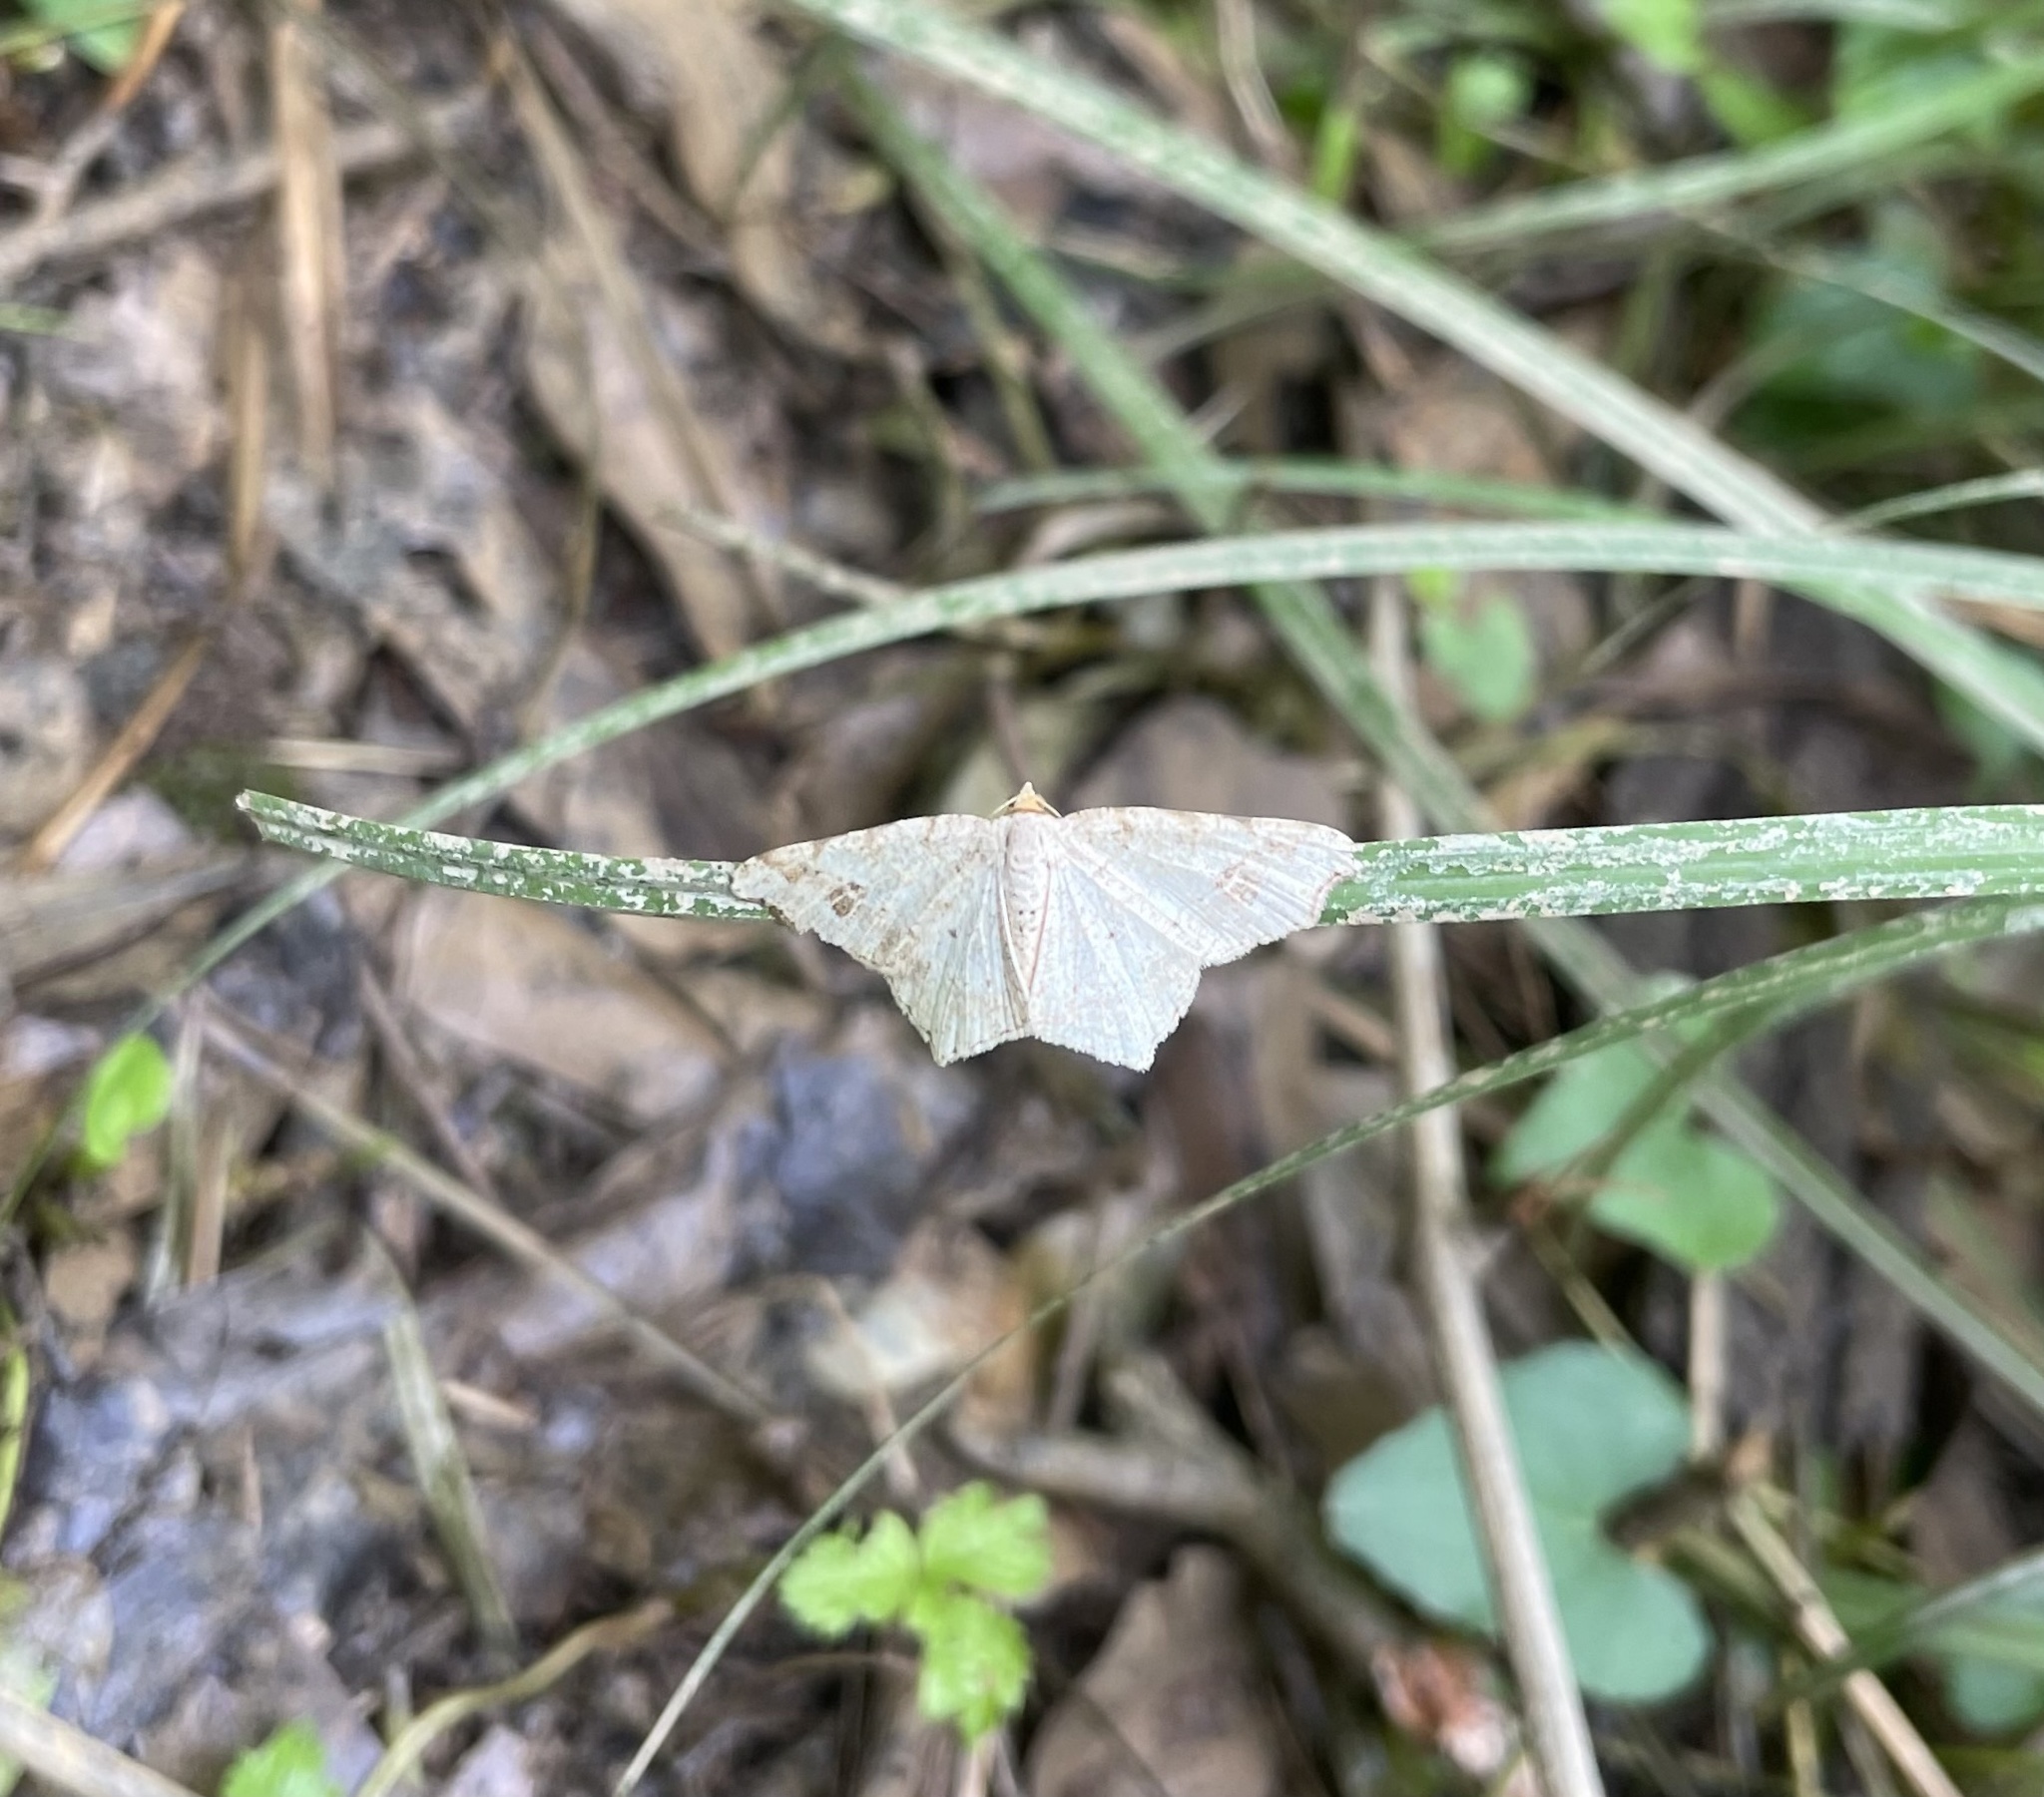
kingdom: Animalia
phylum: Arthropoda
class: Insecta
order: Lepidoptera
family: Geometridae
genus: Macaria
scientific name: Macaria aemulataria
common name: Common angle
